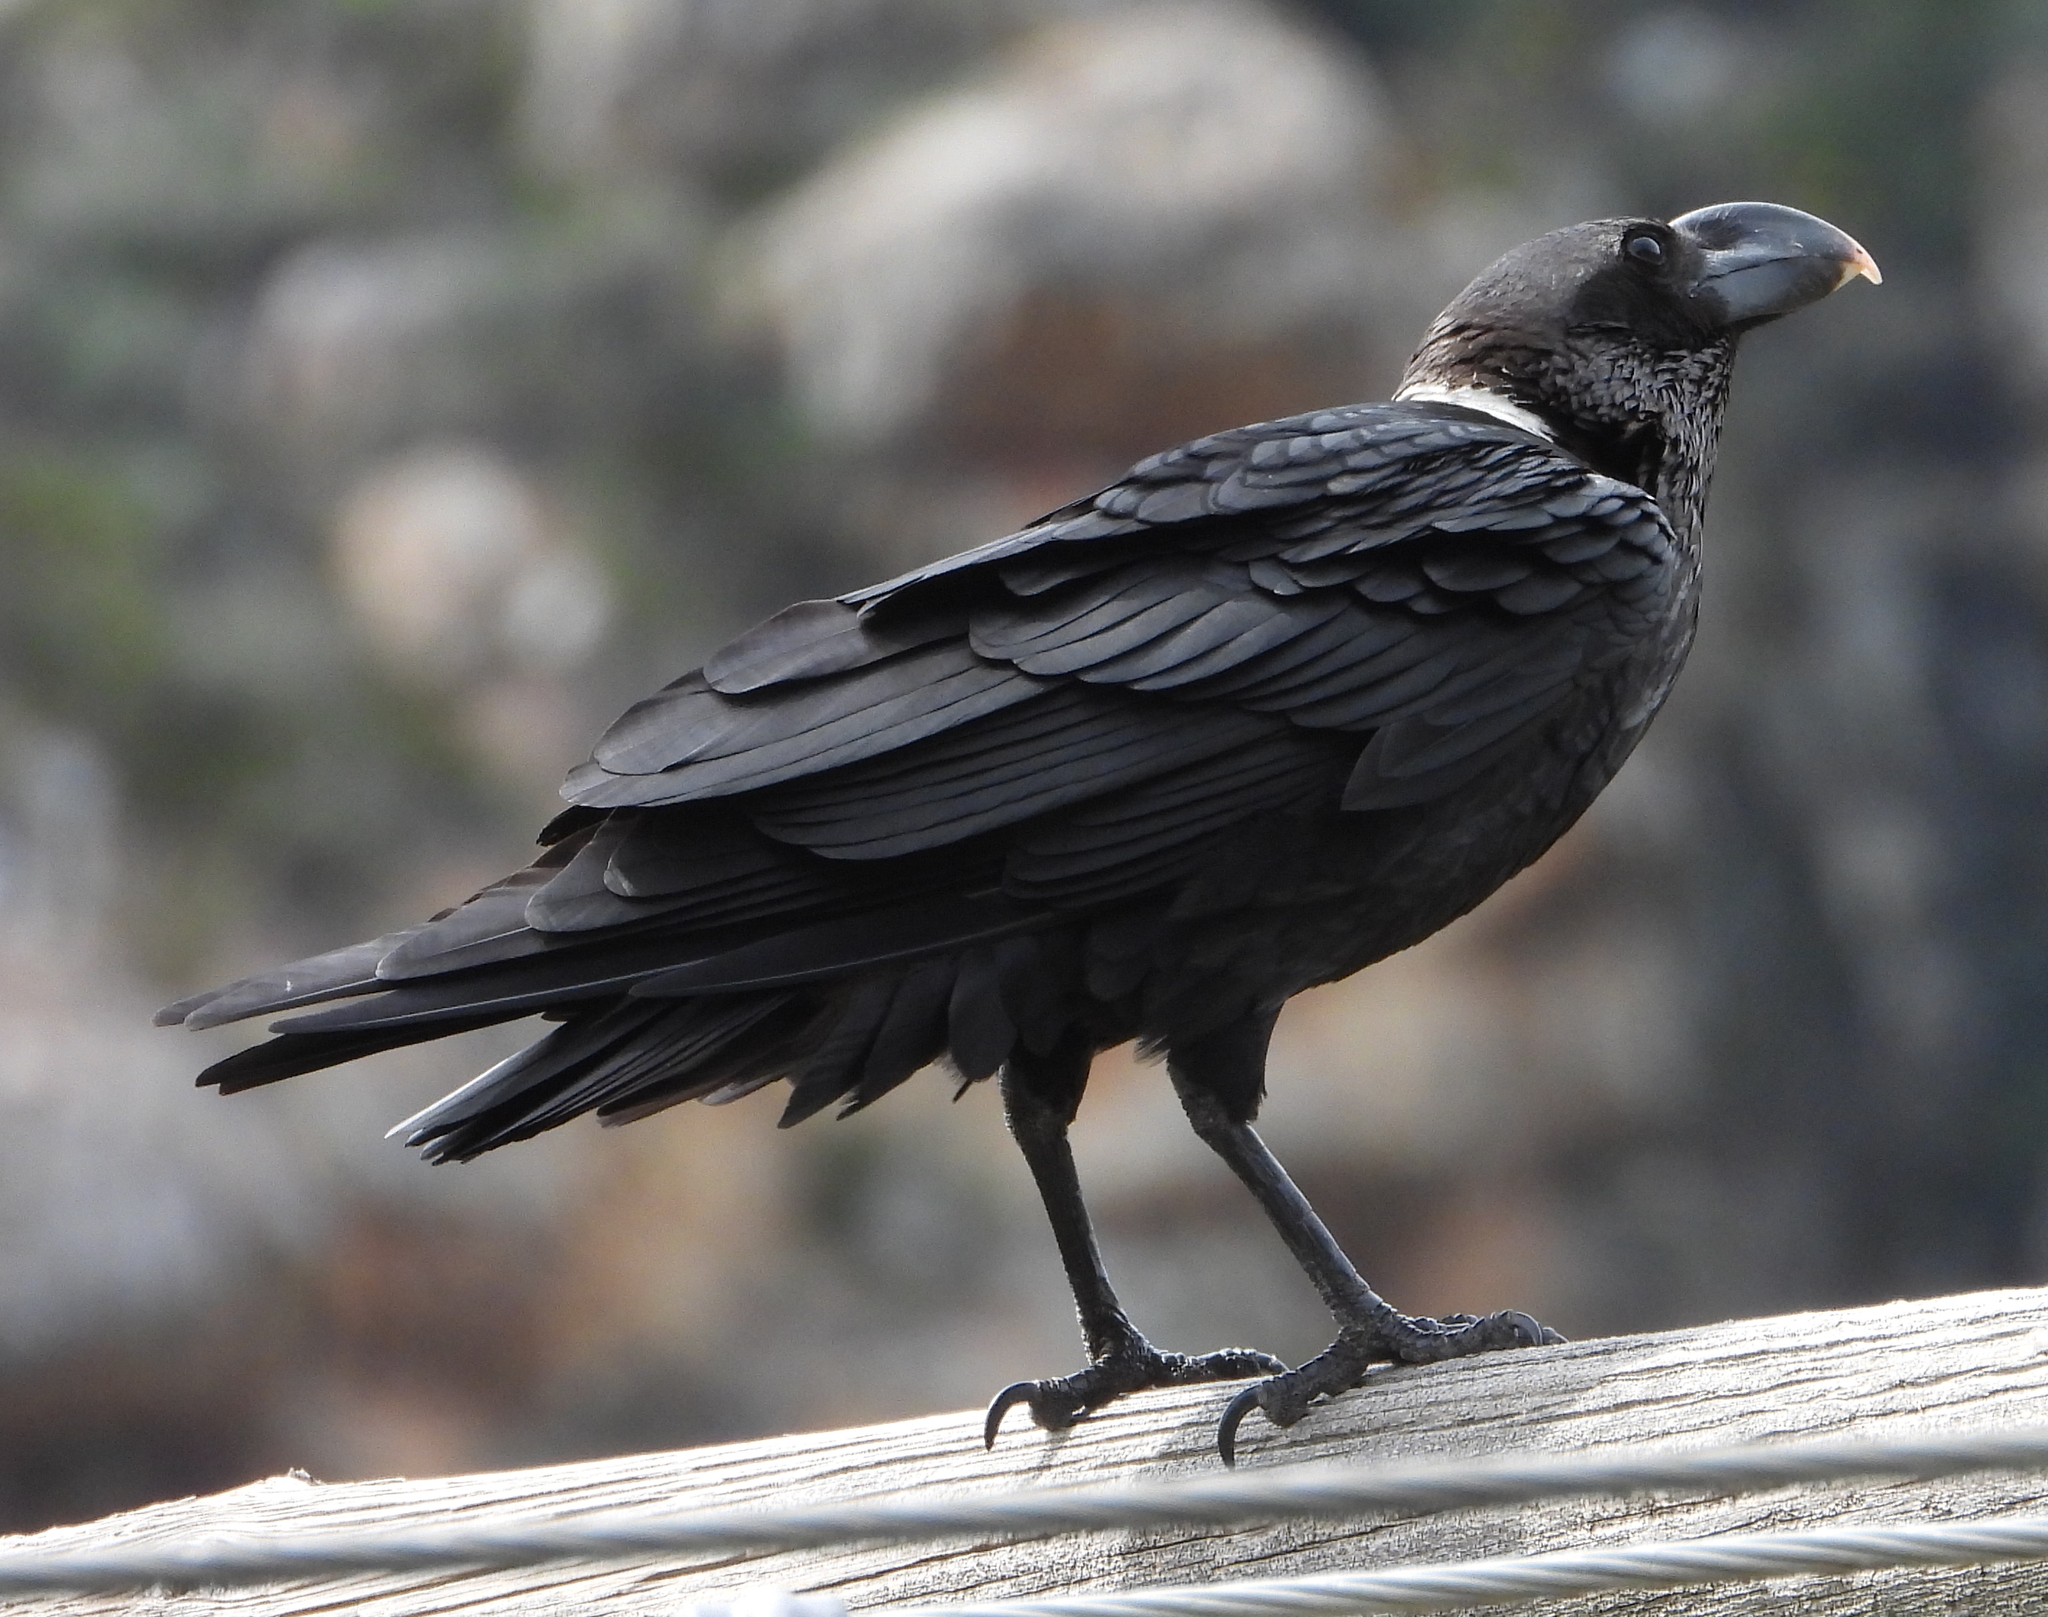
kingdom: Animalia
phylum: Chordata
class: Aves
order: Passeriformes
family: Corvidae
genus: Corvus
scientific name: Corvus albicollis
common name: White-necked raven
